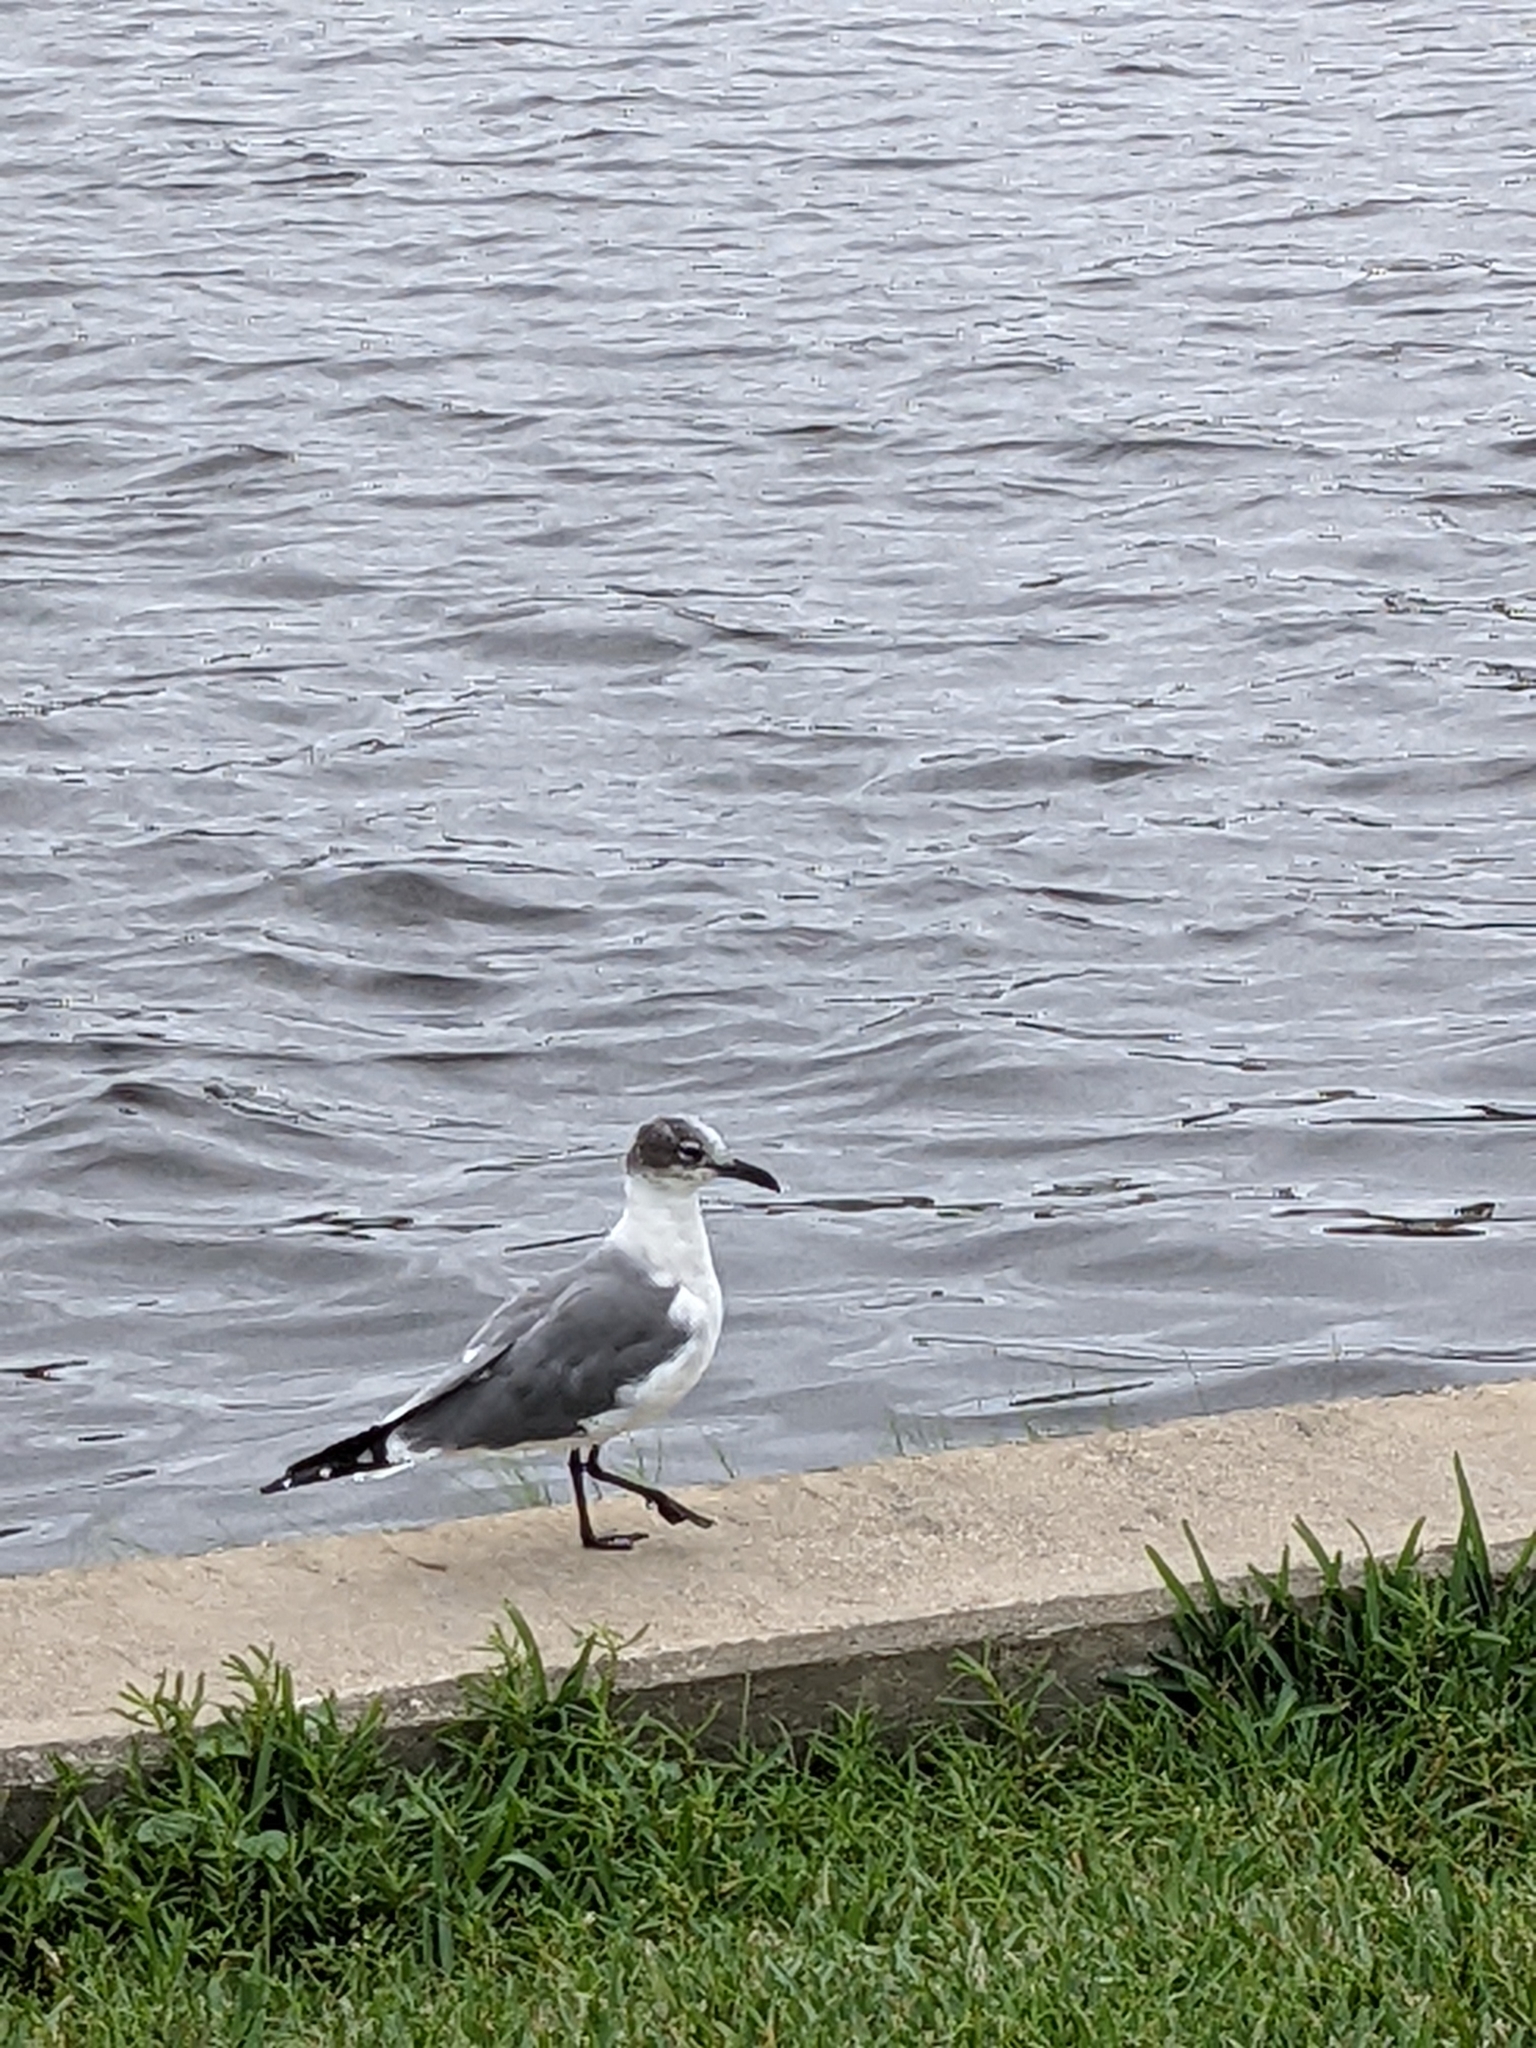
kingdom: Animalia
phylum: Chordata
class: Aves
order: Charadriiformes
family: Laridae
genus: Leucophaeus
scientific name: Leucophaeus atricilla
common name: Laughing gull
